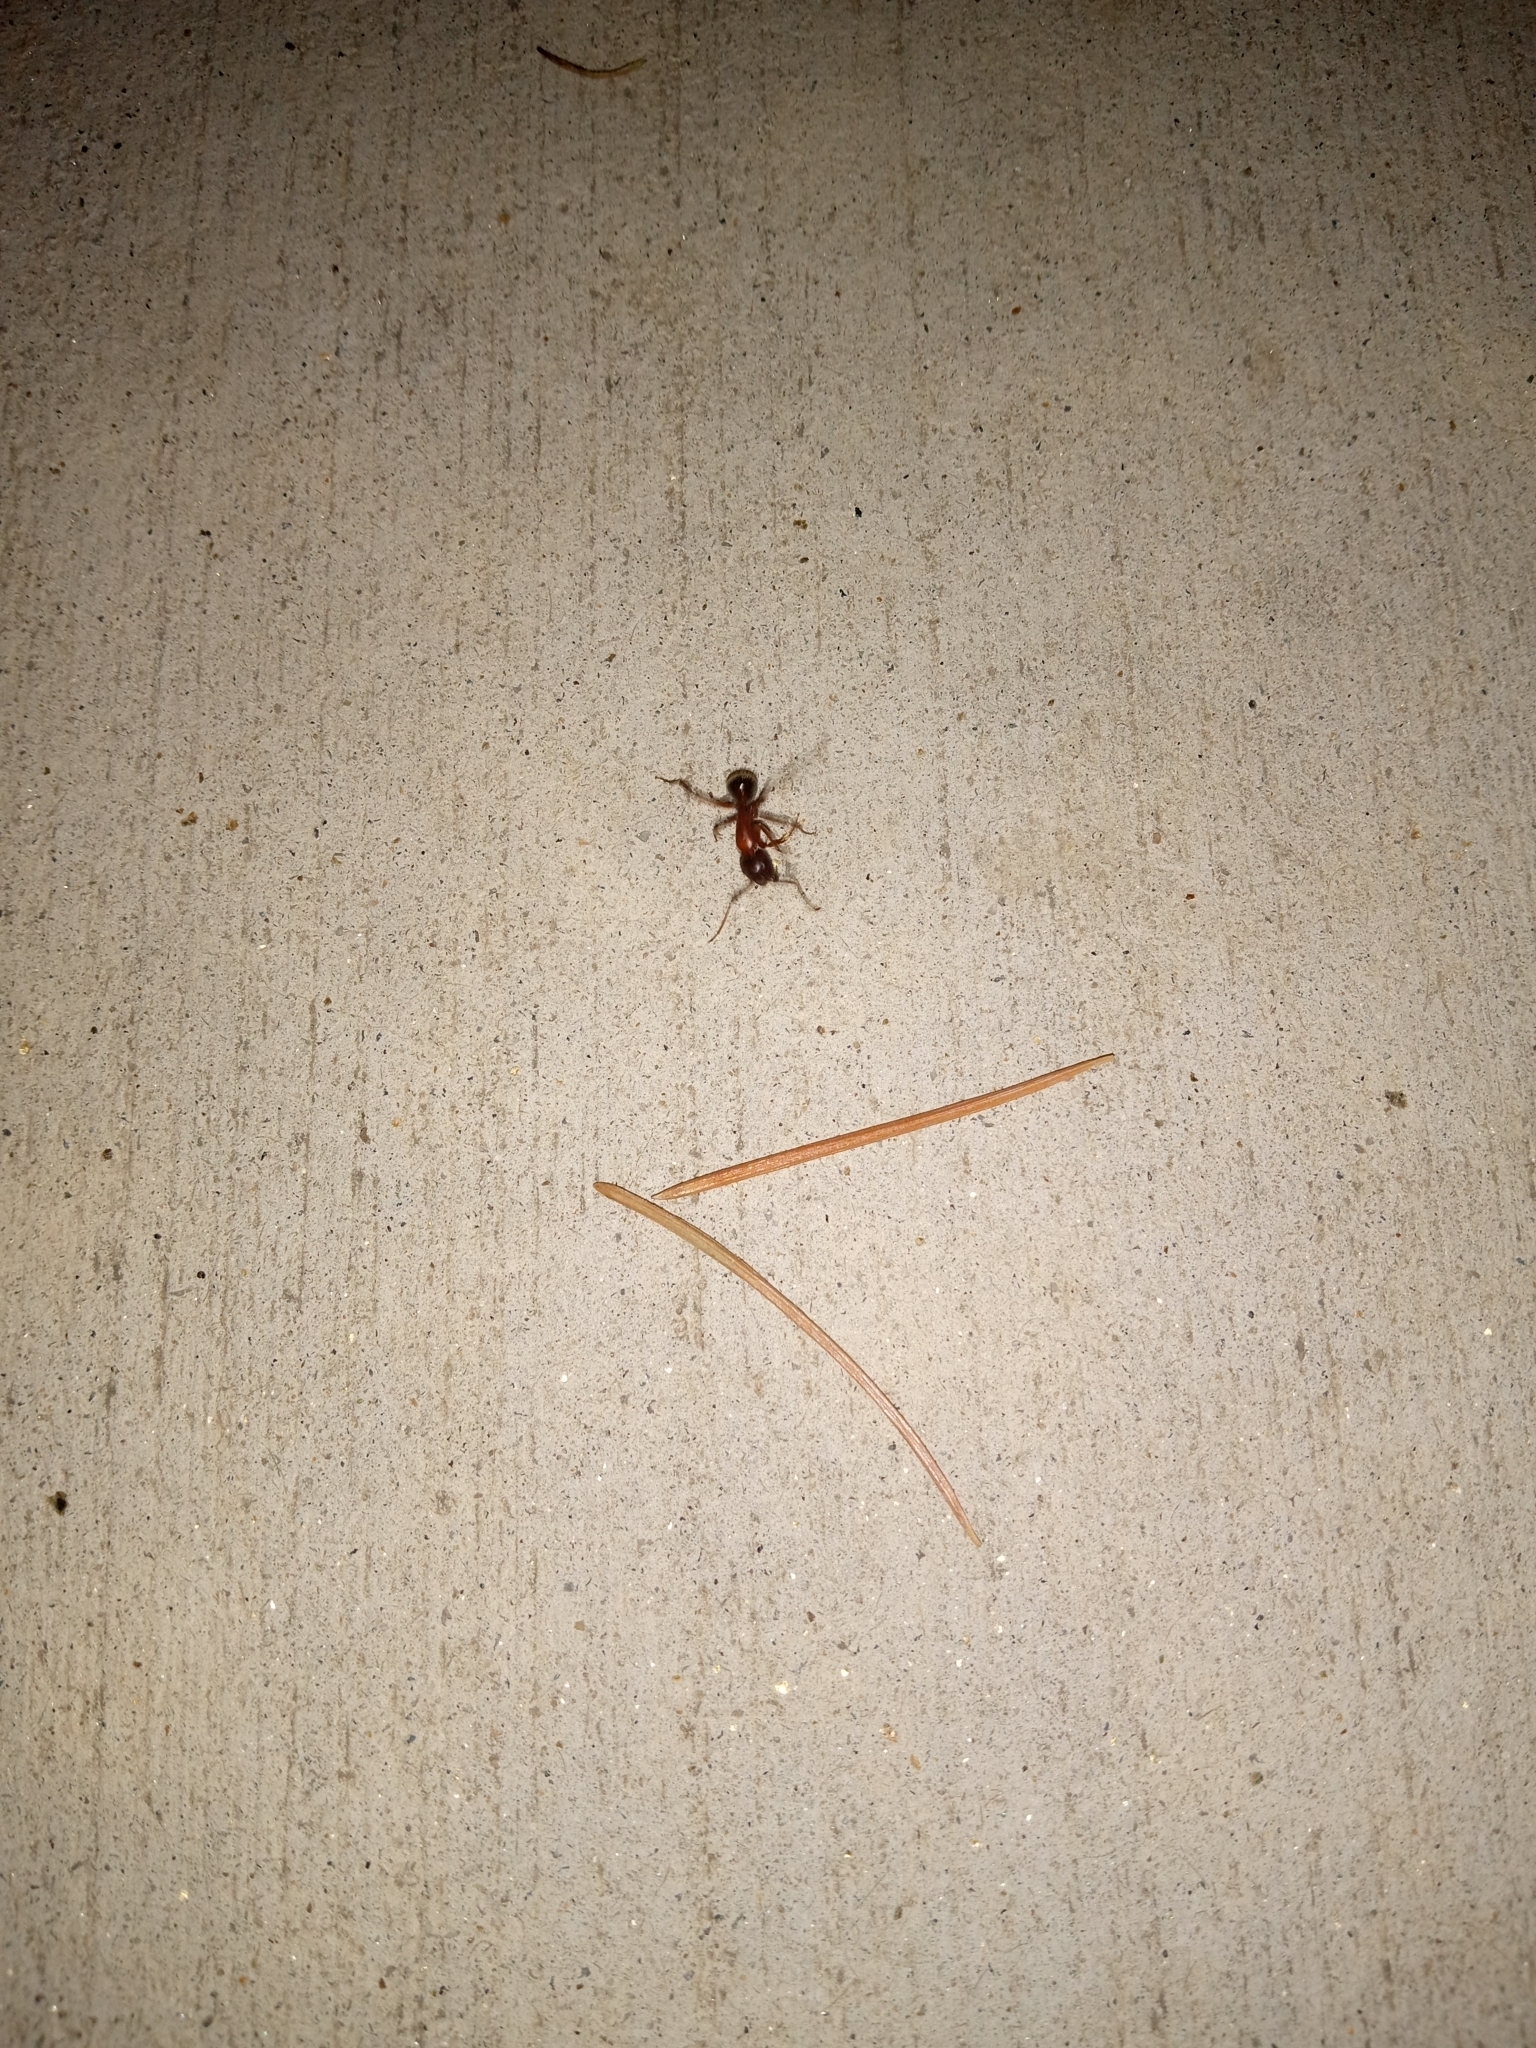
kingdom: Animalia
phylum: Arthropoda
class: Insecta
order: Hymenoptera
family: Formicidae
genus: Tanaemyrmex
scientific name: Tanaemyrmex
